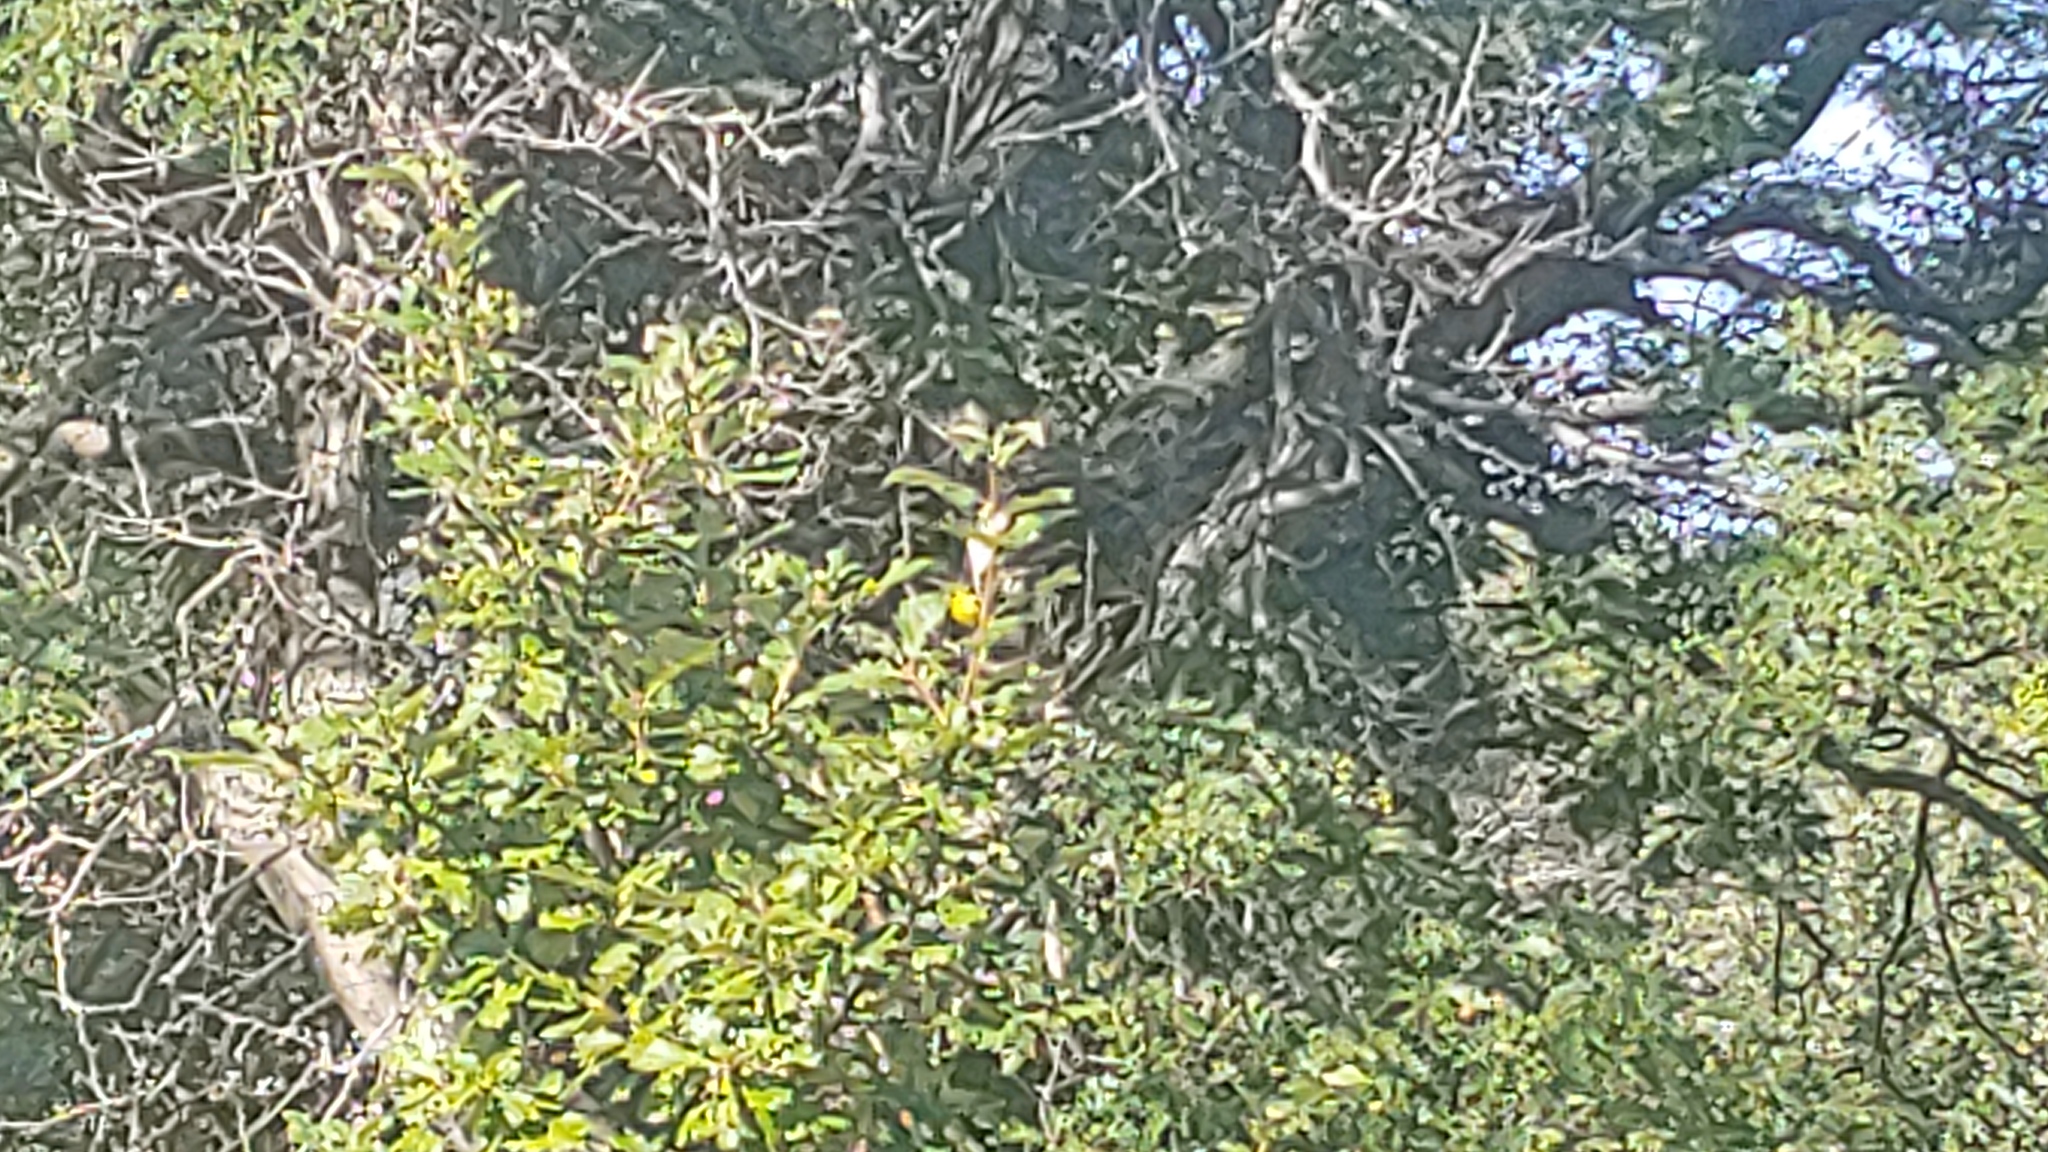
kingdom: Animalia
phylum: Chordata
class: Aves
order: Passeriformes
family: Fringillidae
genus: Spinus
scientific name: Spinus tristis
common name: American goldfinch
